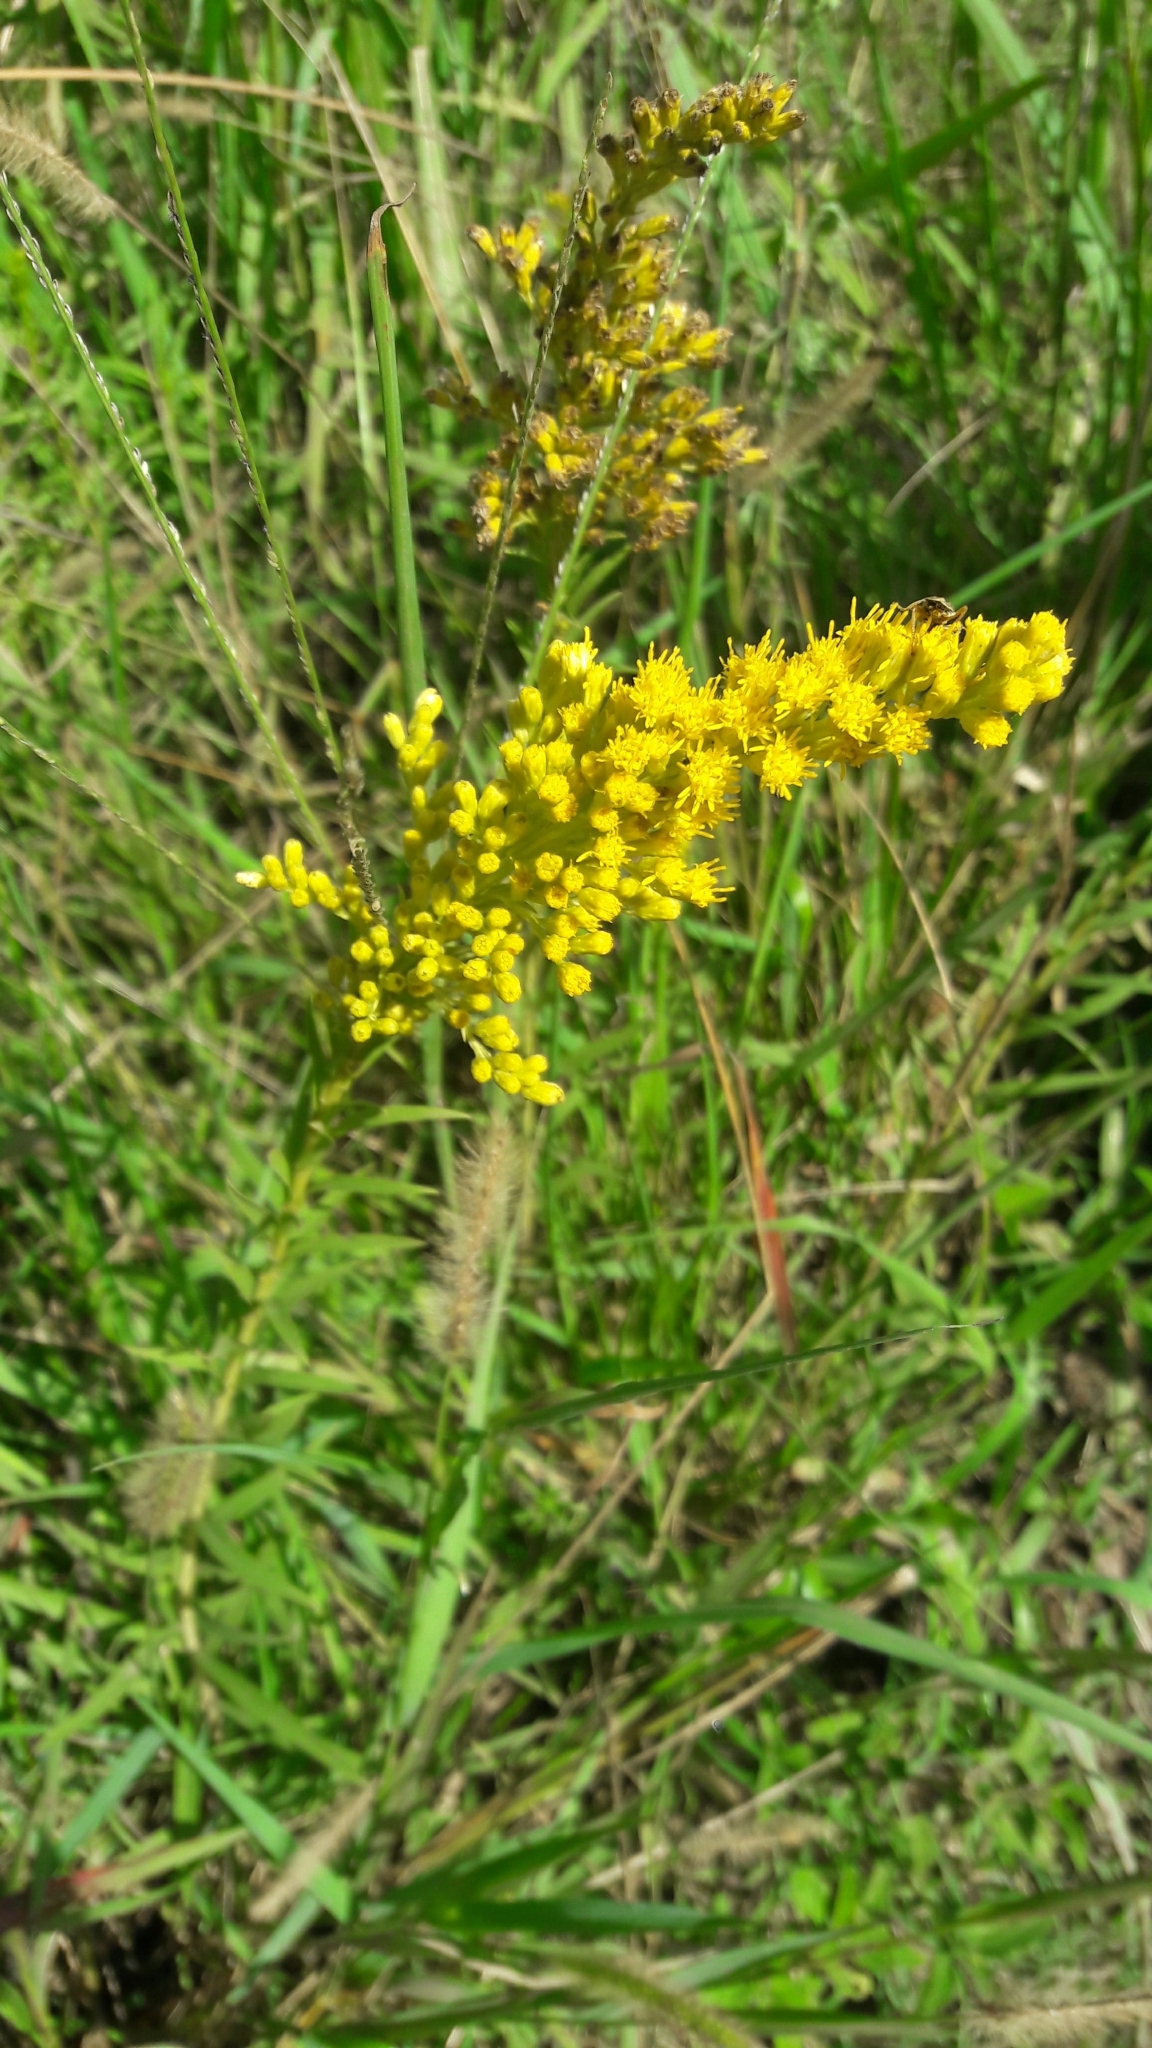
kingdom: Plantae
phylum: Tracheophyta
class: Magnoliopsida
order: Asterales
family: Asteraceae
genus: Solidago
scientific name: Solidago chilensis
